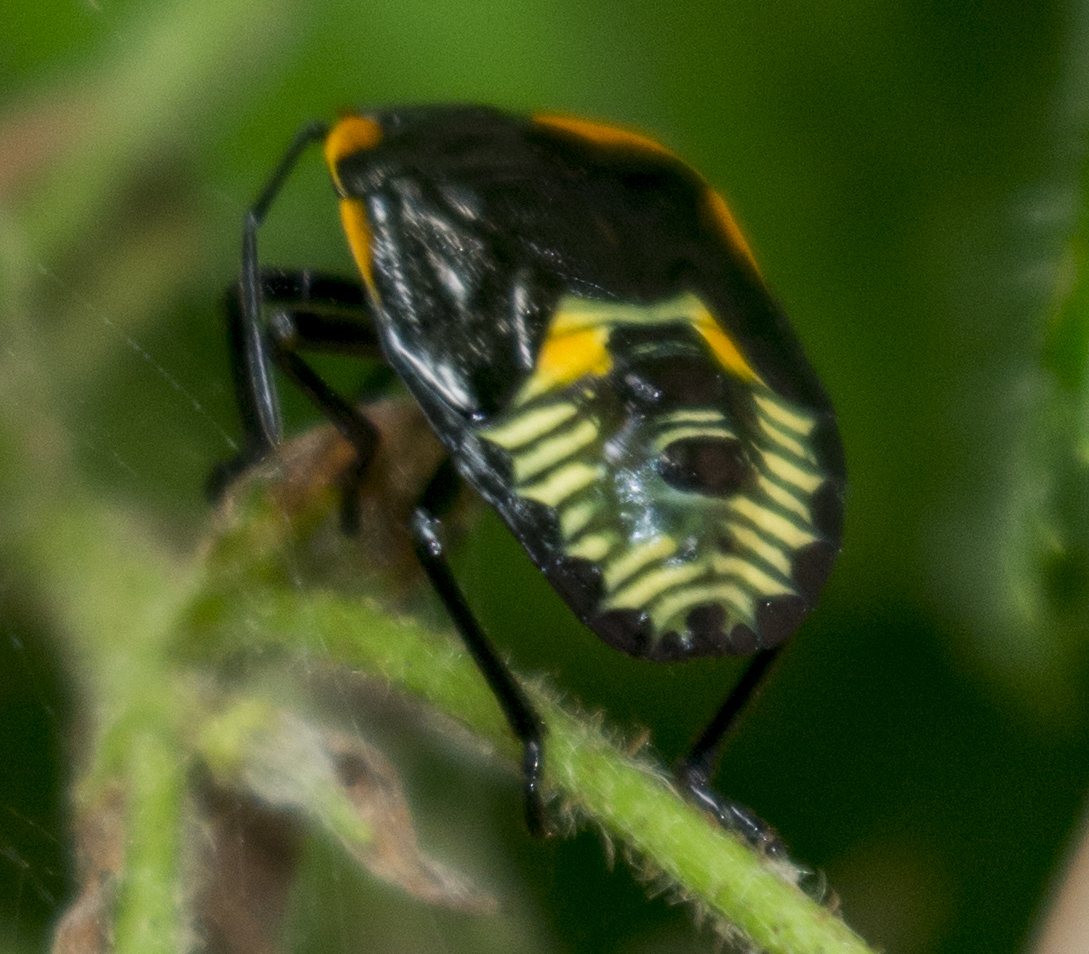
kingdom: Animalia
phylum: Arthropoda
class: Insecta
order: Hemiptera
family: Pentatomidae
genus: Chinavia
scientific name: Chinavia hilaris
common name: Green stink bug
